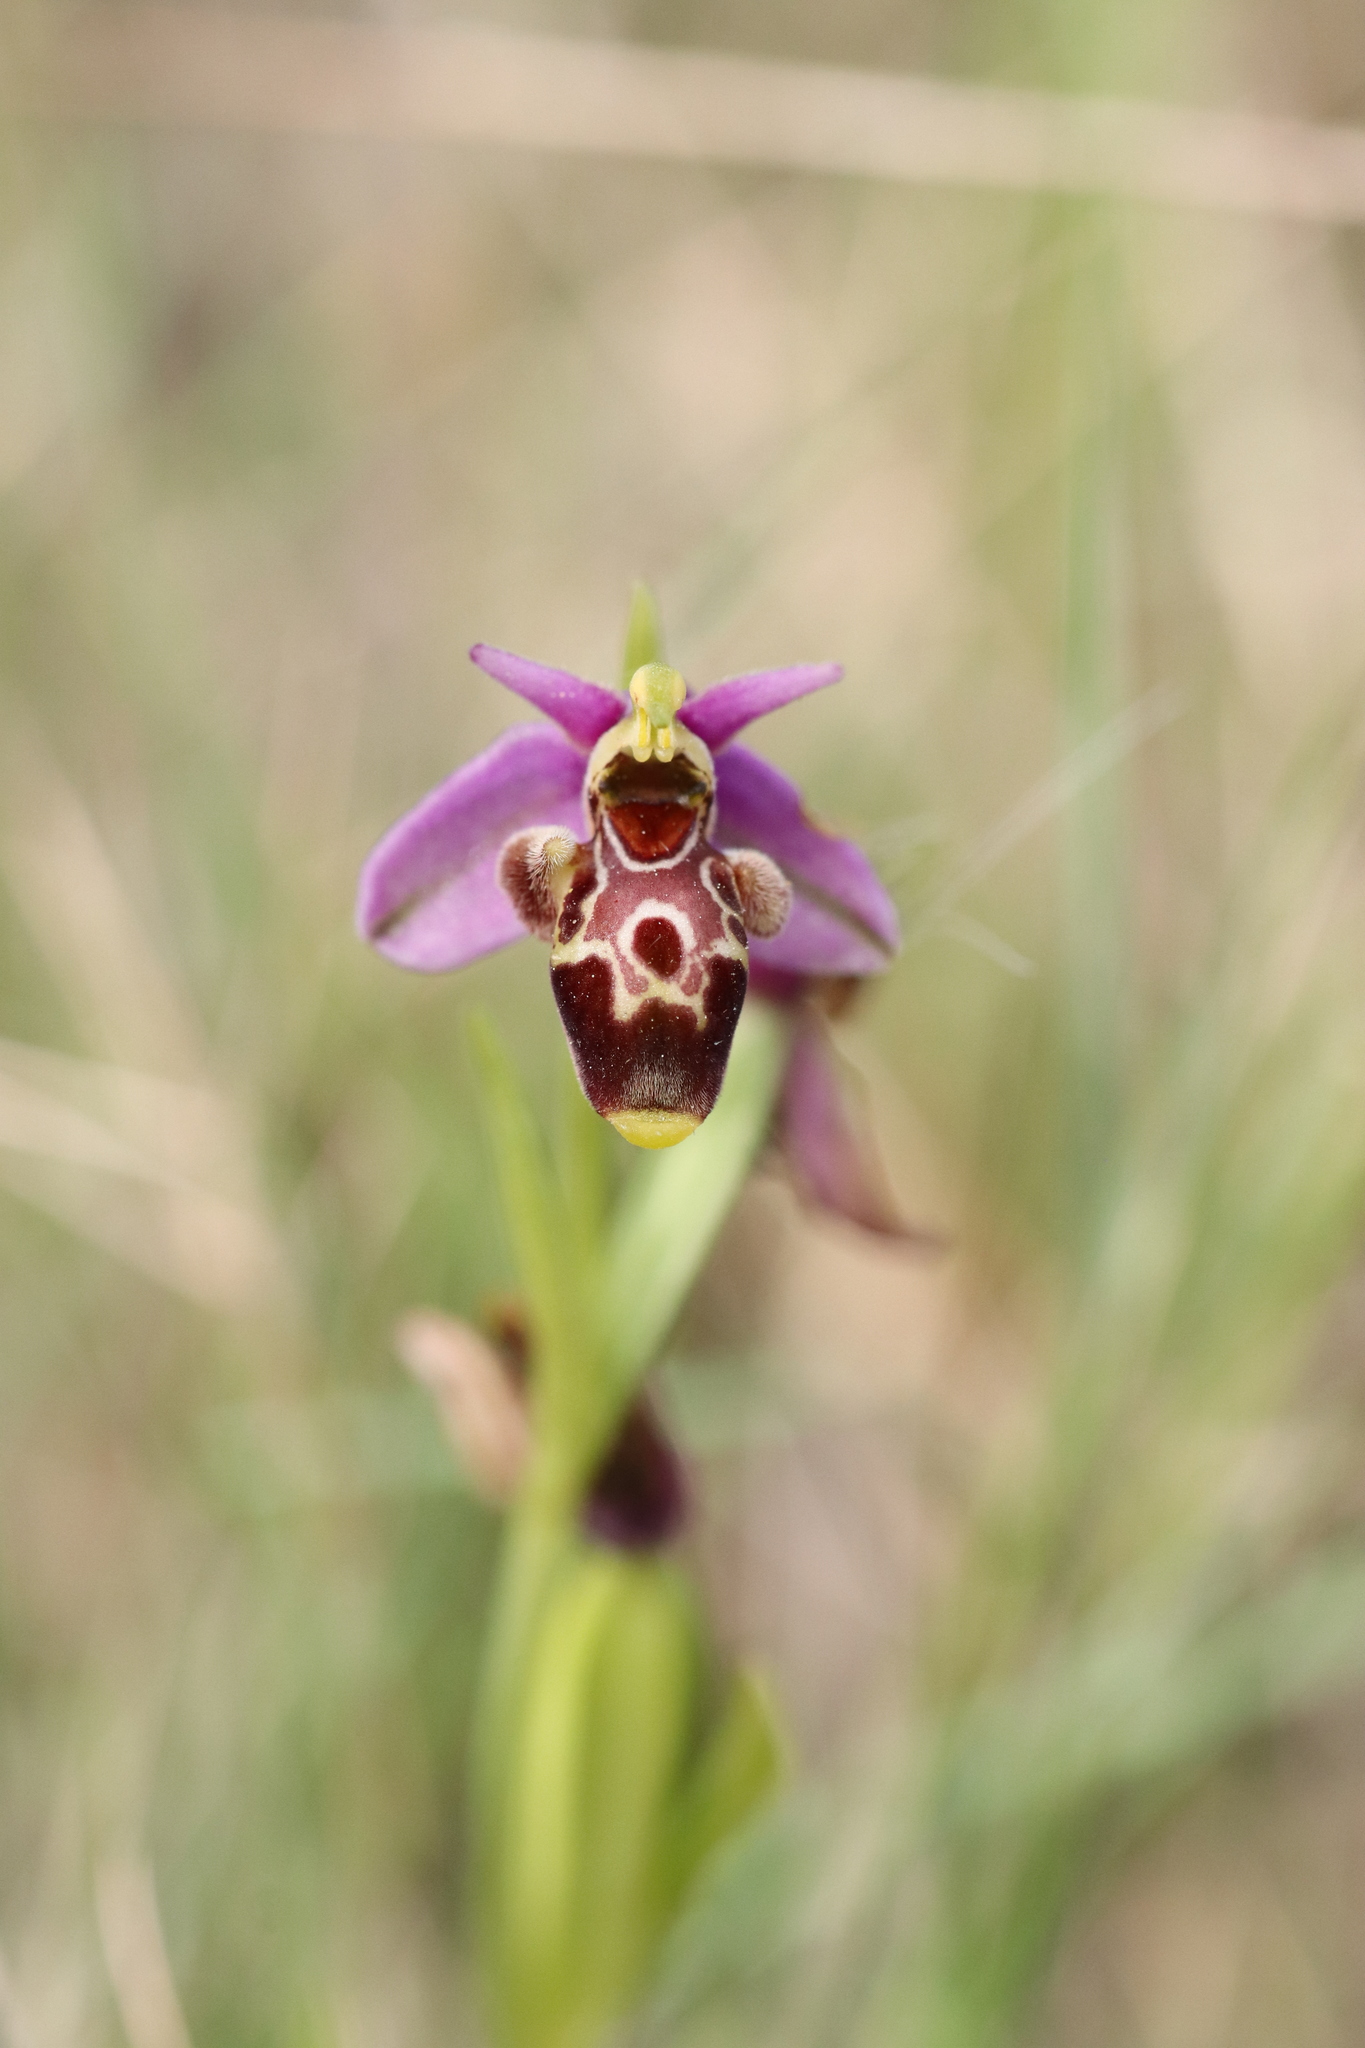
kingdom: Plantae
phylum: Tracheophyta
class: Liliopsida
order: Asparagales
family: Orchidaceae
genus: Ophrys
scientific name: Ophrys scolopax
